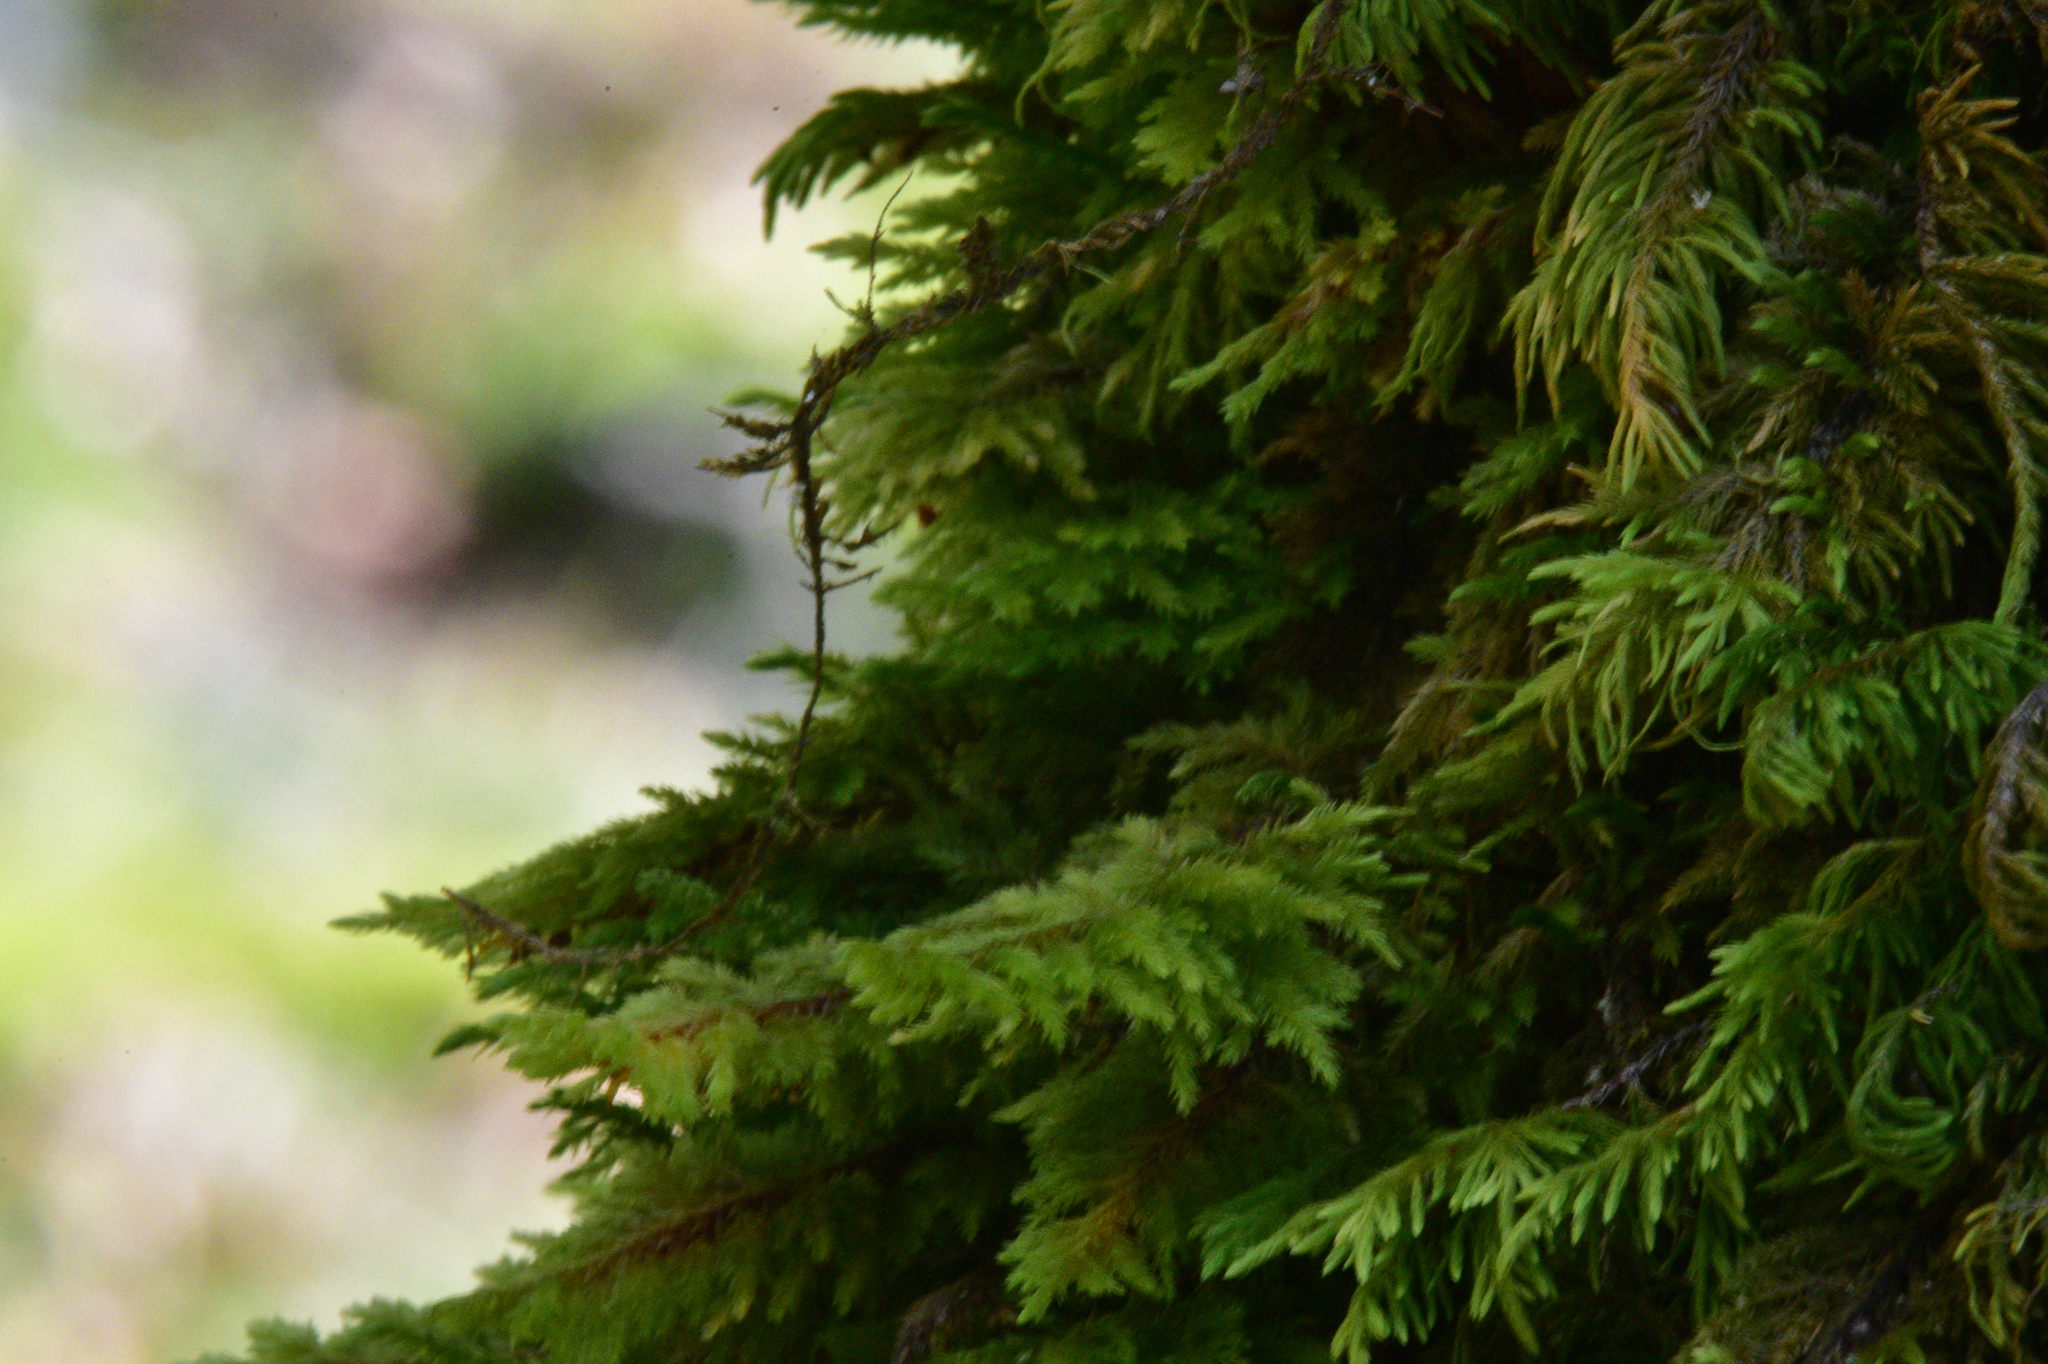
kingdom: Plantae
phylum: Bryophyta
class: Bryopsida
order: Hypnales
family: Cryphaeaceae
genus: Dendroalsia
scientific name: Dendroalsia abietina
